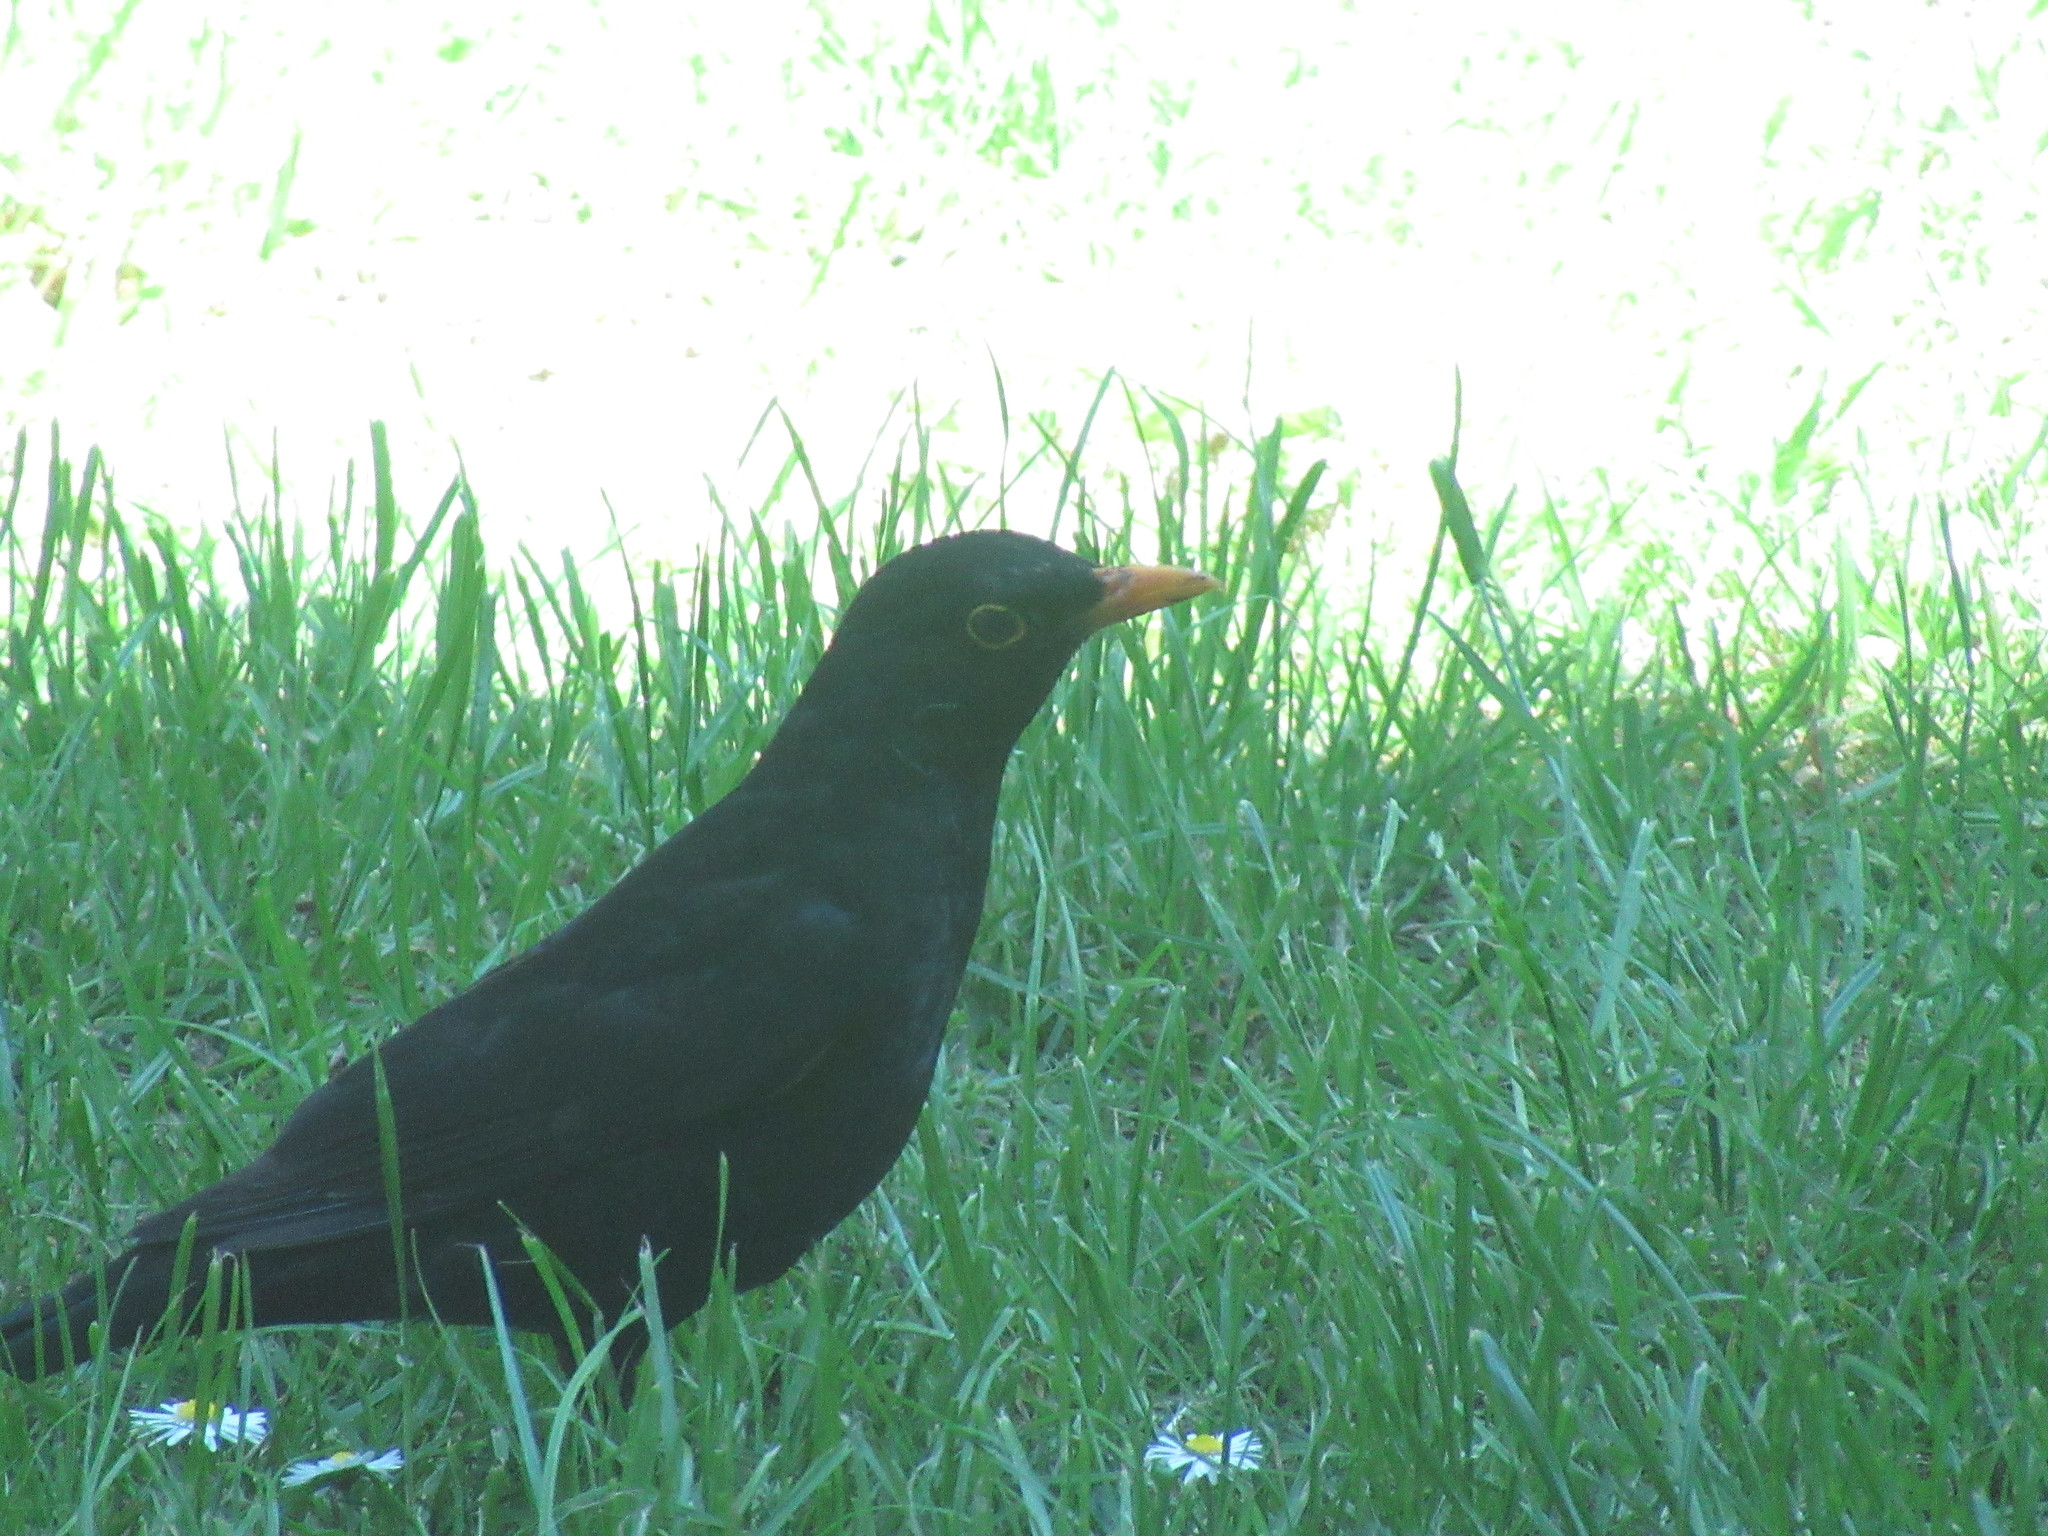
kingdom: Animalia
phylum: Chordata
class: Aves
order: Passeriformes
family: Turdidae
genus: Turdus
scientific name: Turdus merula
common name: Common blackbird
